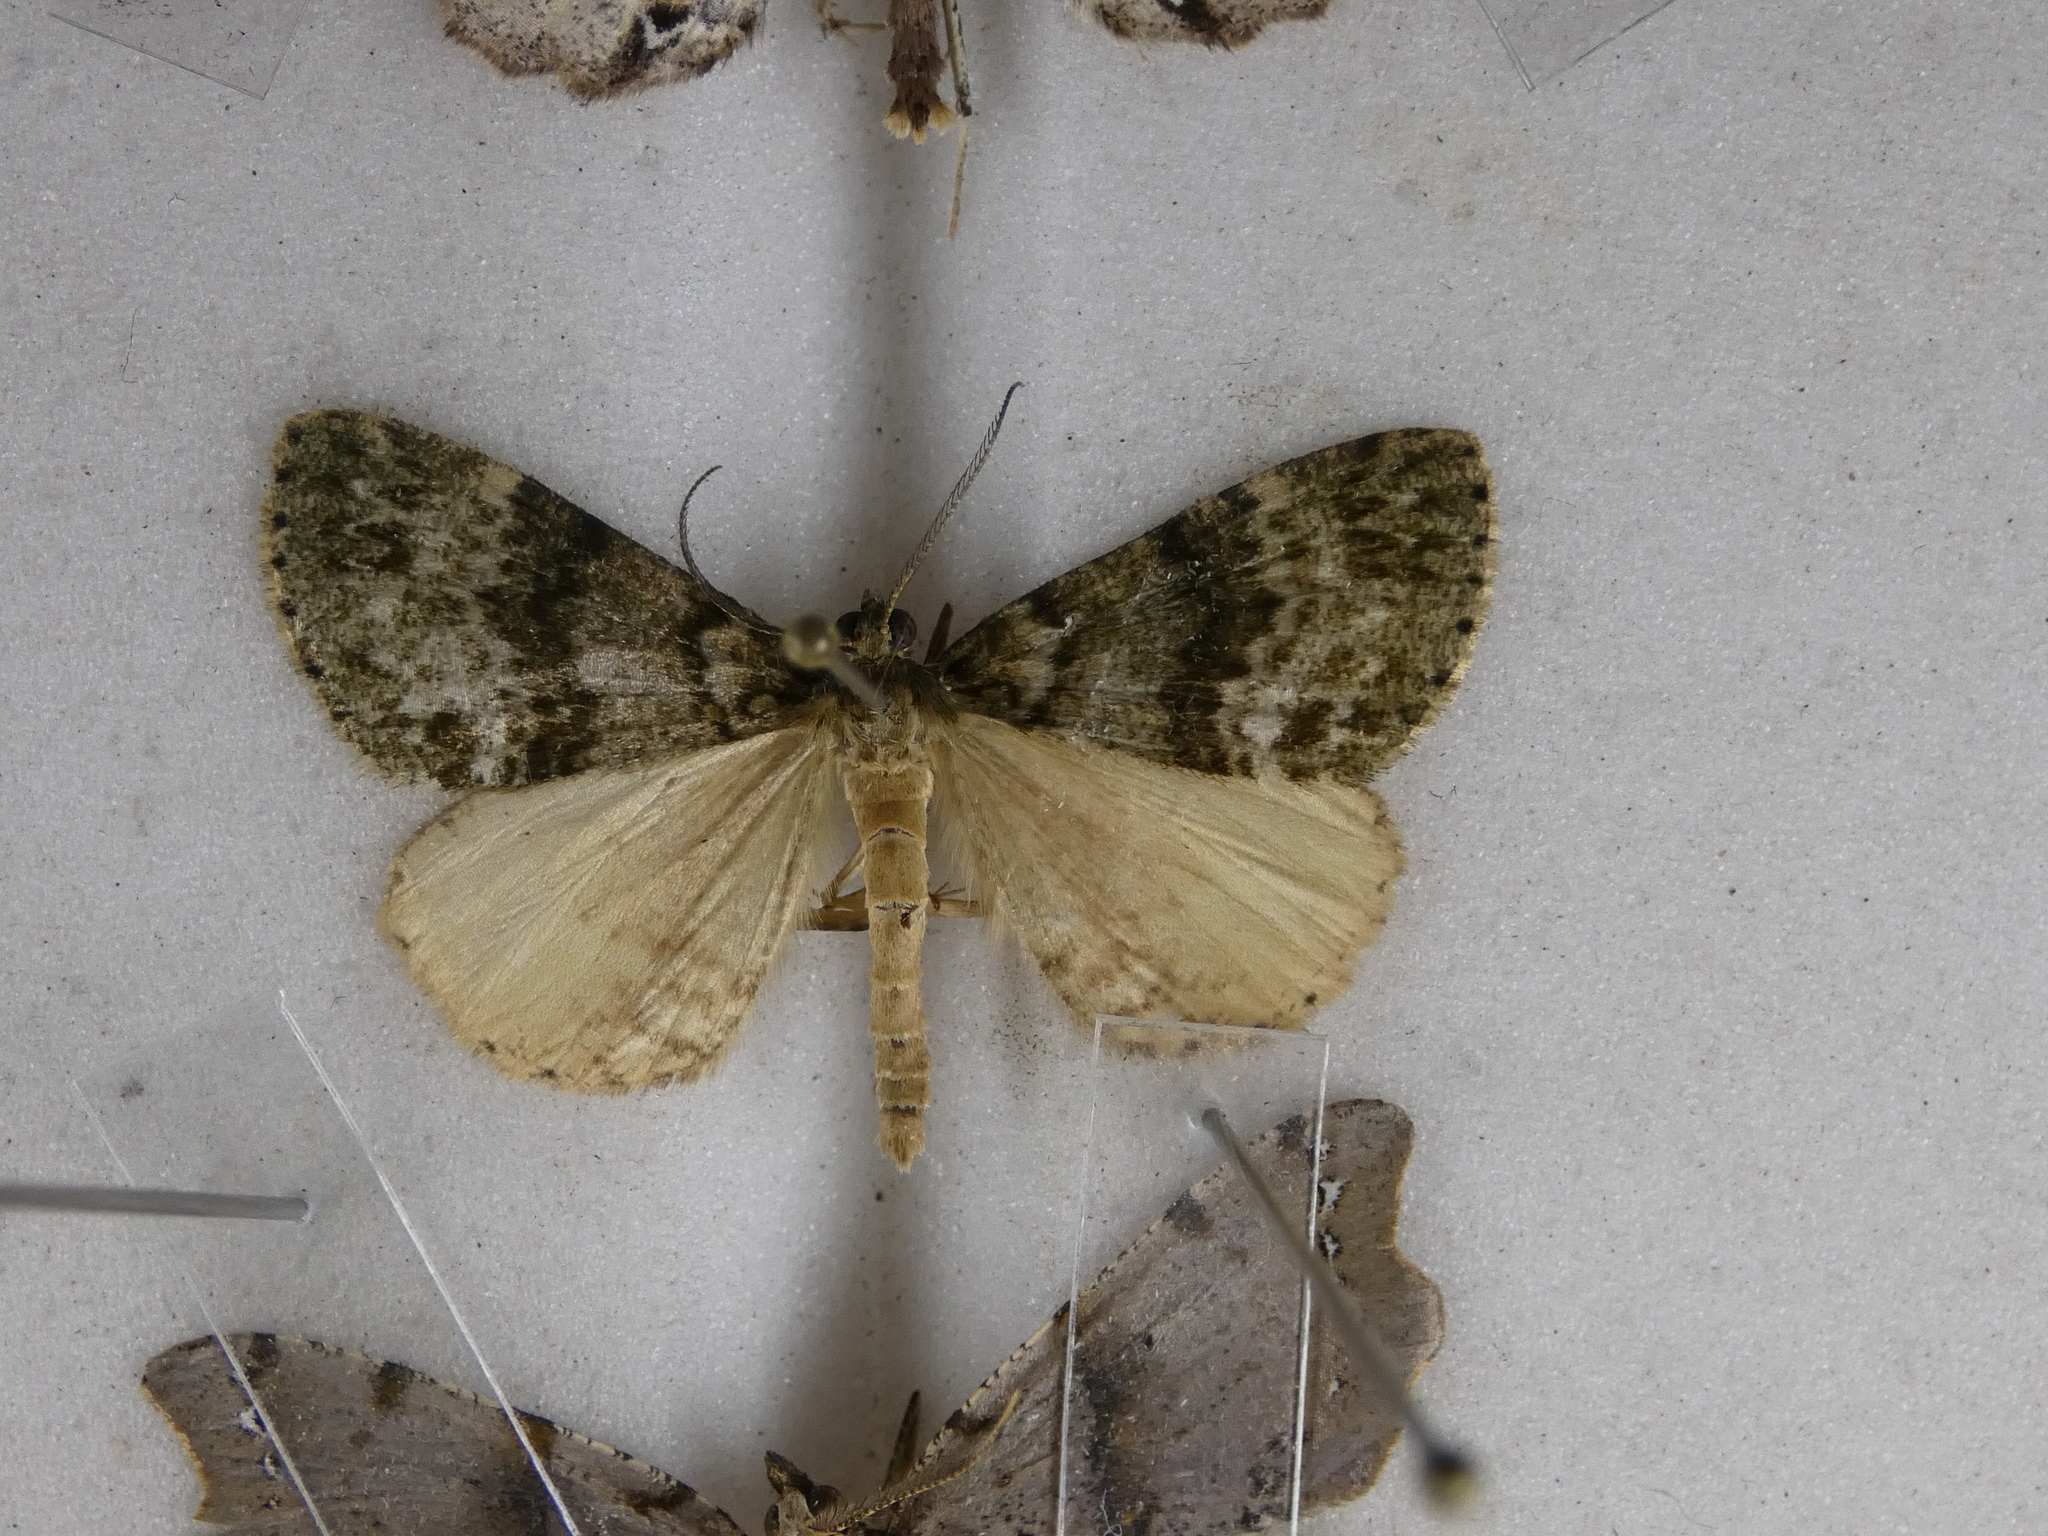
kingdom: Animalia
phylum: Arthropoda
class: Insecta
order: Lepidoptera
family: Geometridae
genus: Pseudocoremia
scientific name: Pseudocoremia indistincta
